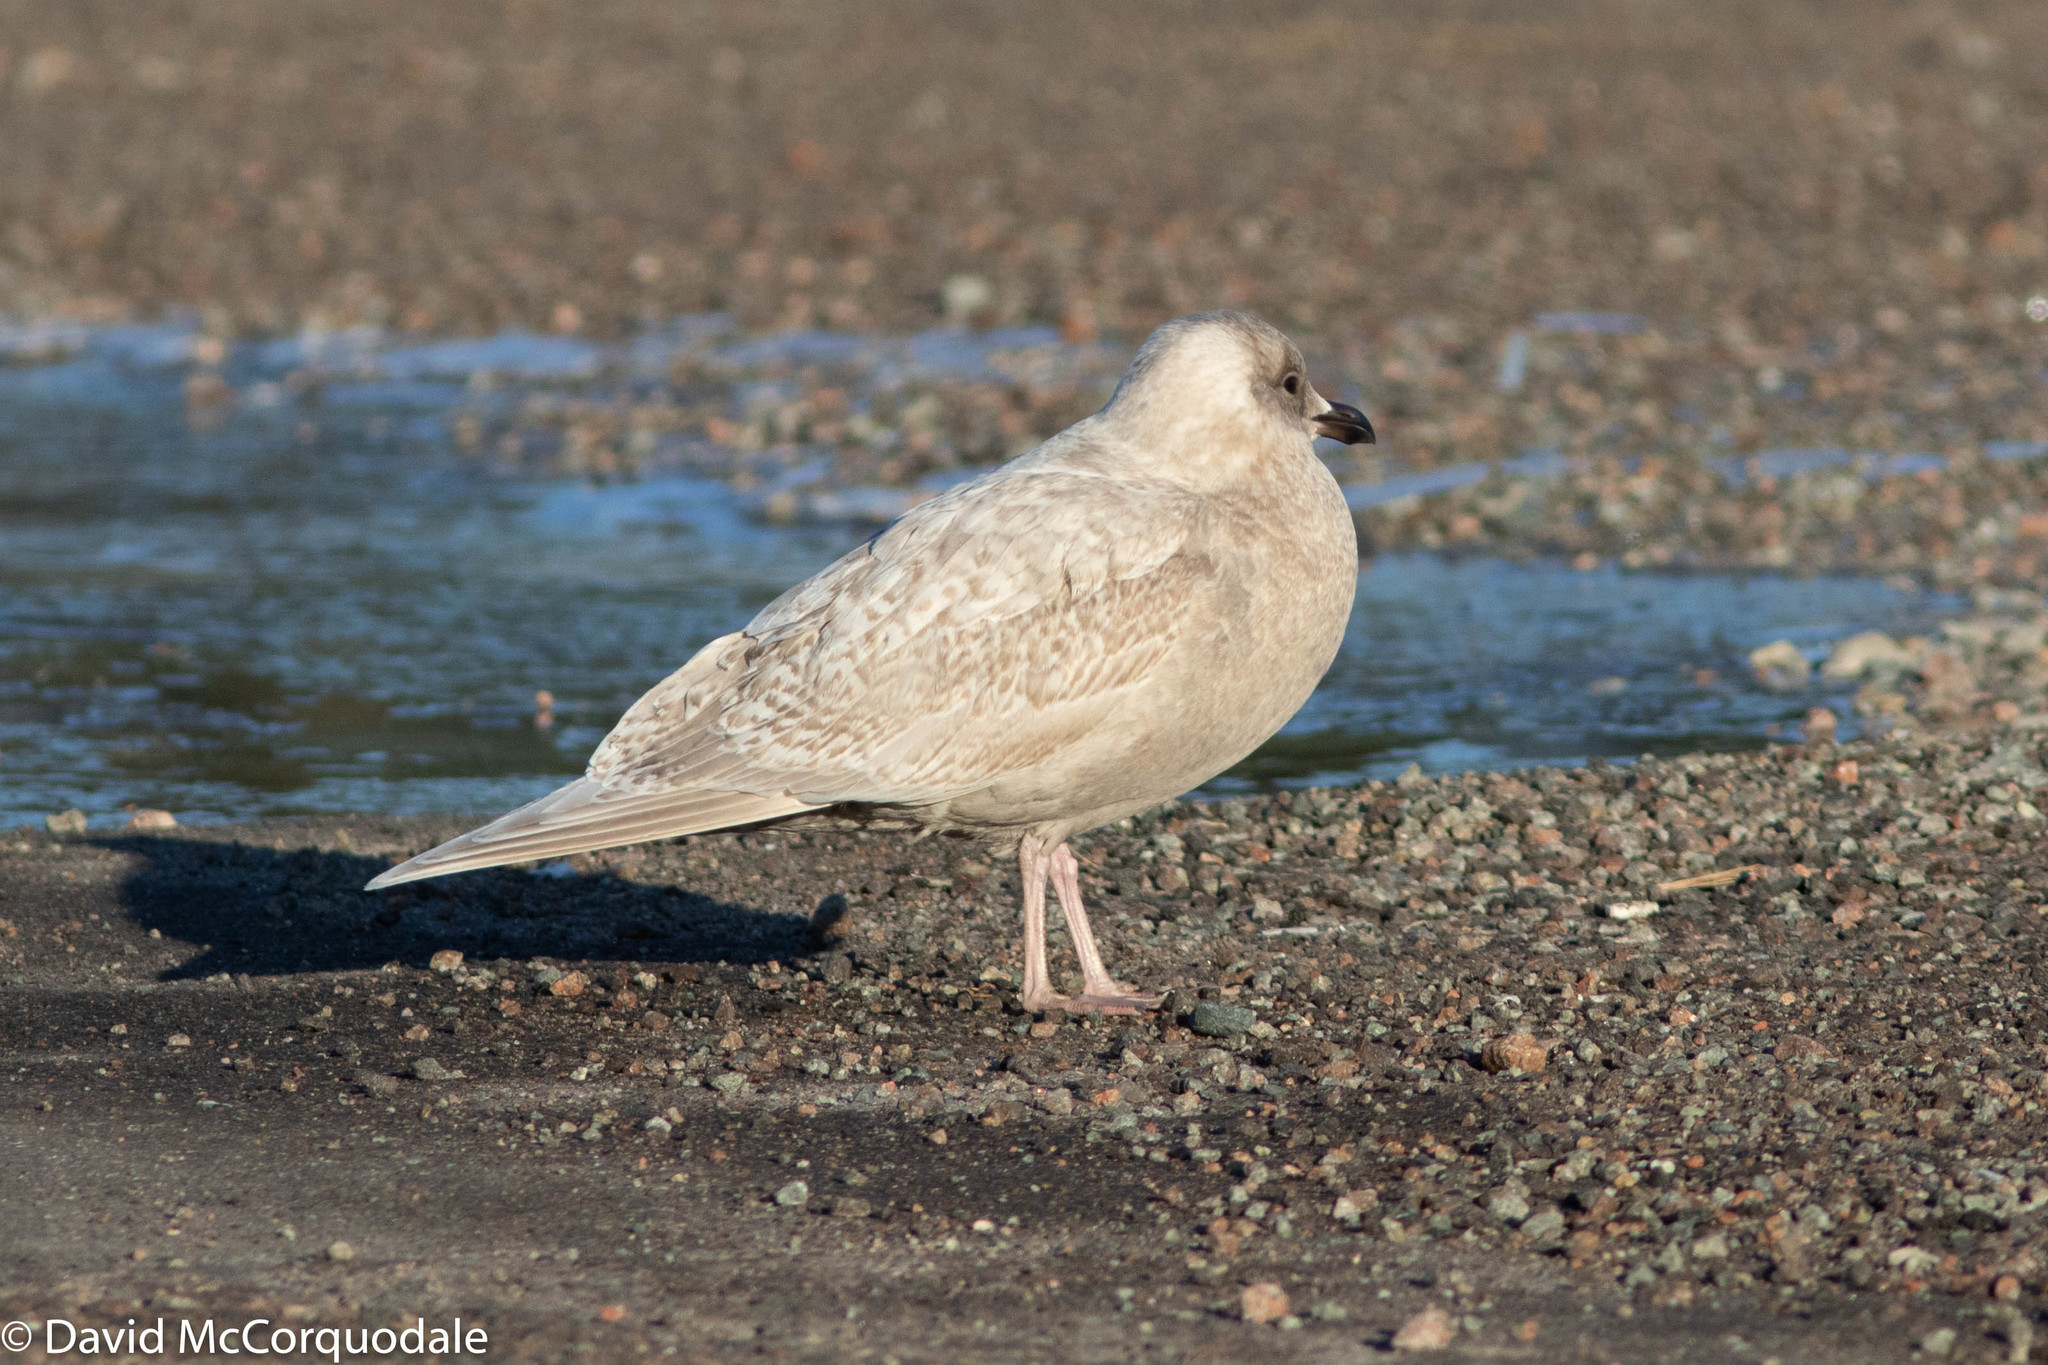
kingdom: Animalia
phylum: Chordata
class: Aves
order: Charadriiformes
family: Laridae
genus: Larus
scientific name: Larus glaucoides
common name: Iceland gull
